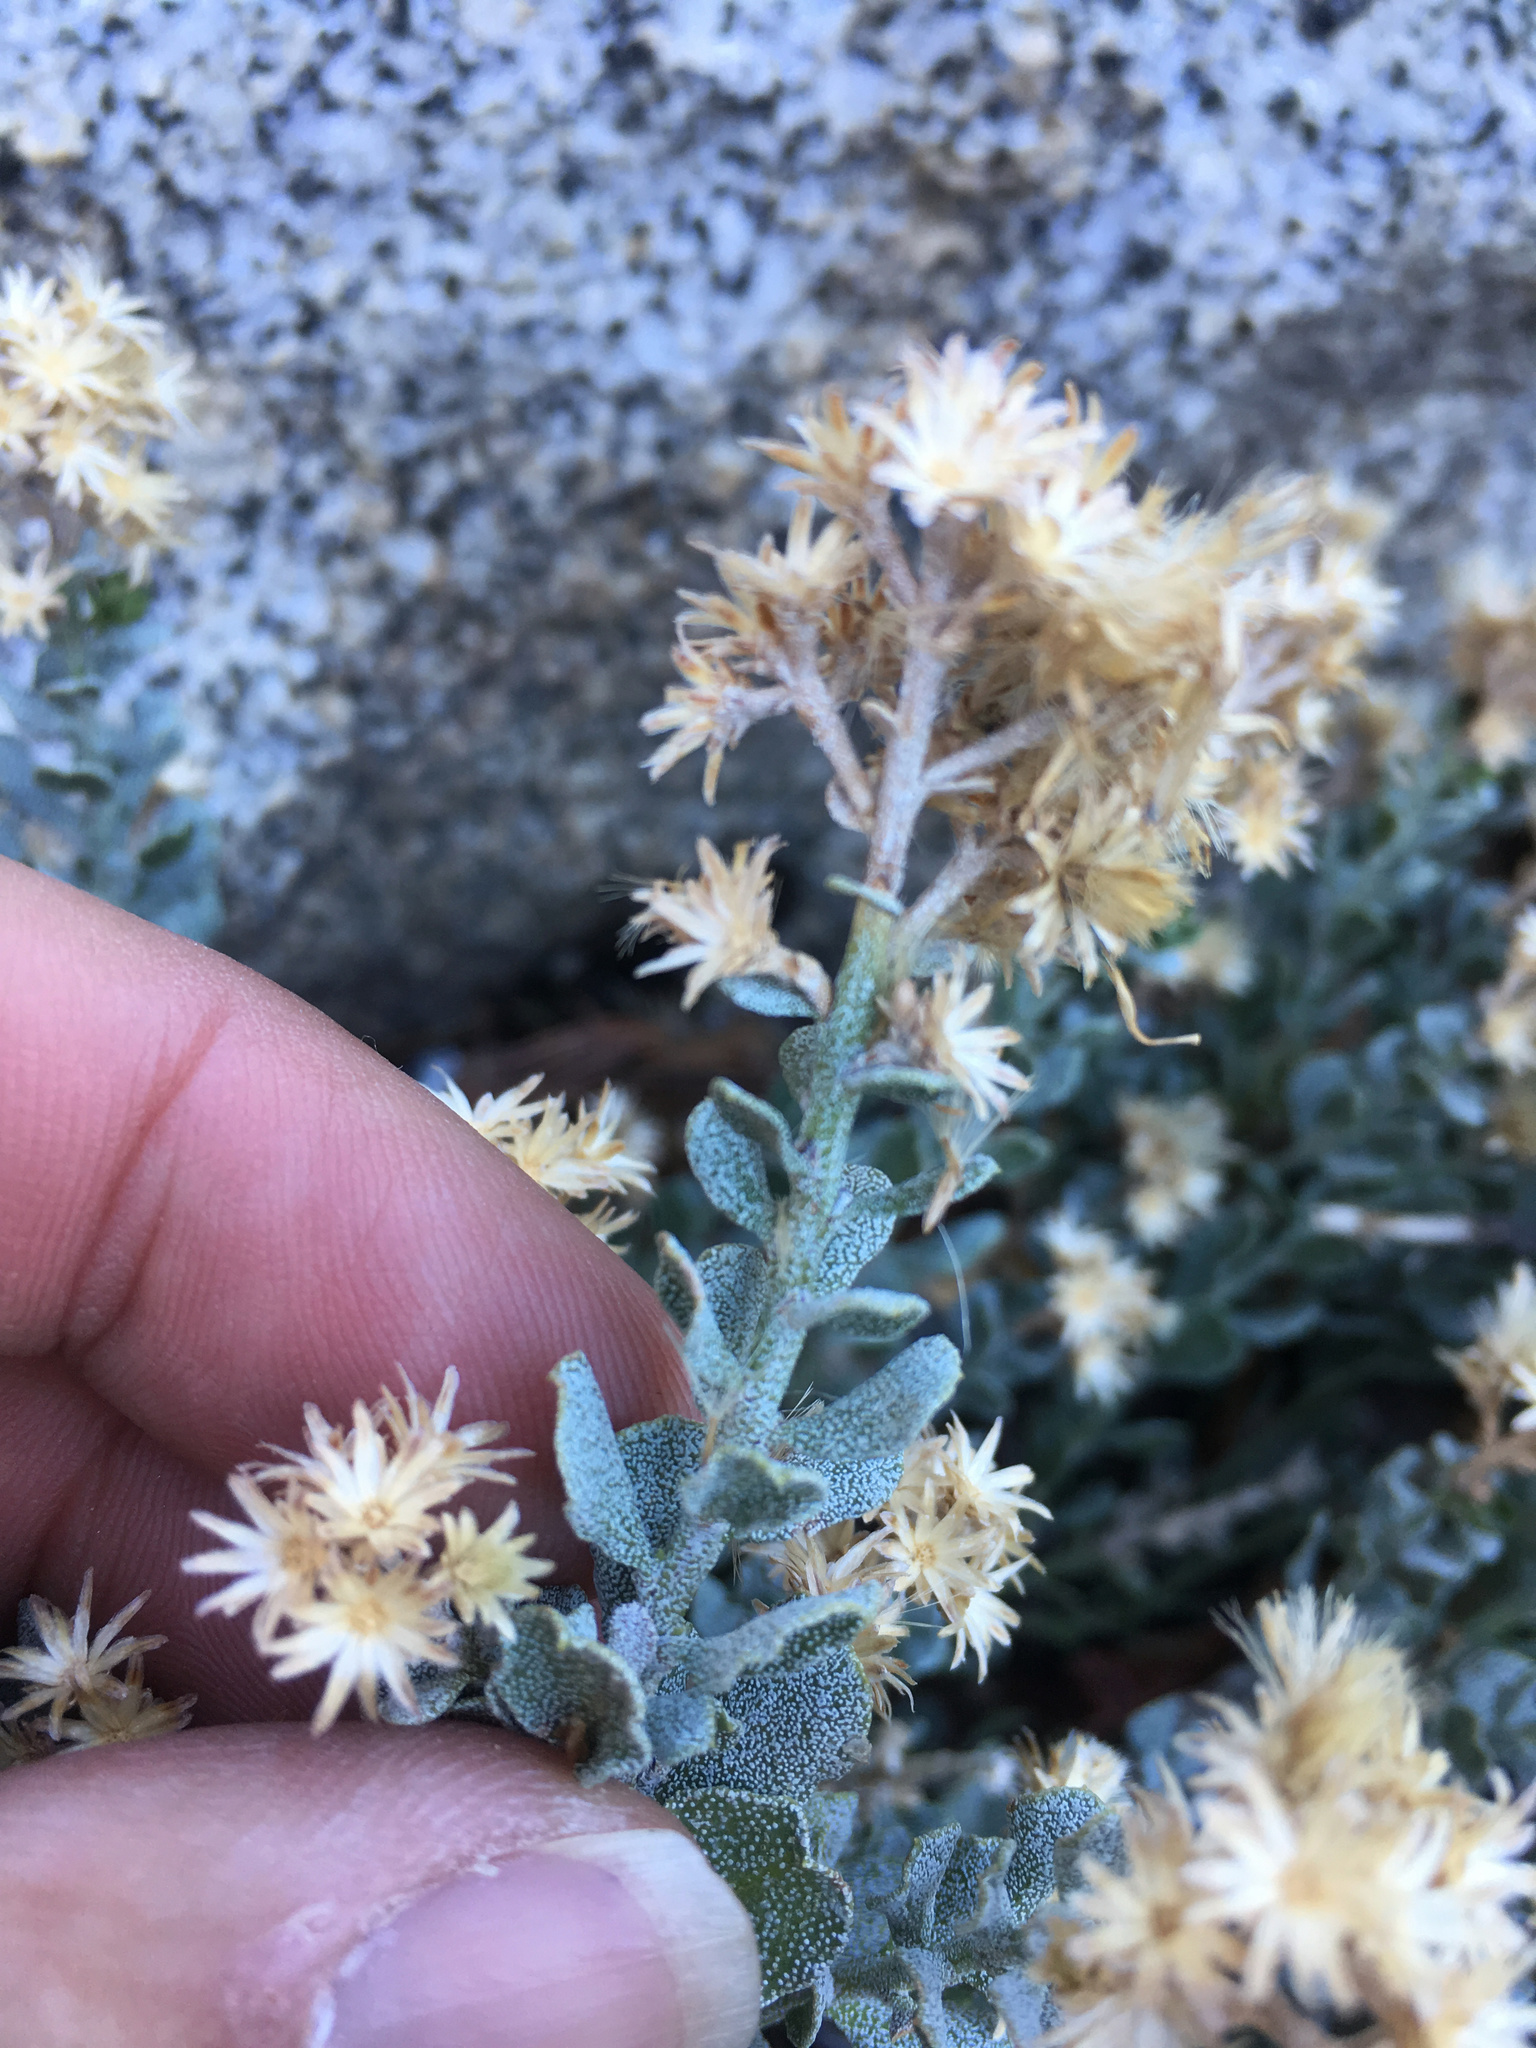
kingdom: Plantae
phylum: Tracheophyta
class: Magnoliopsida
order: Asterales
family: Asteraceae
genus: Ericameria
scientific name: Ericameria cuneata
